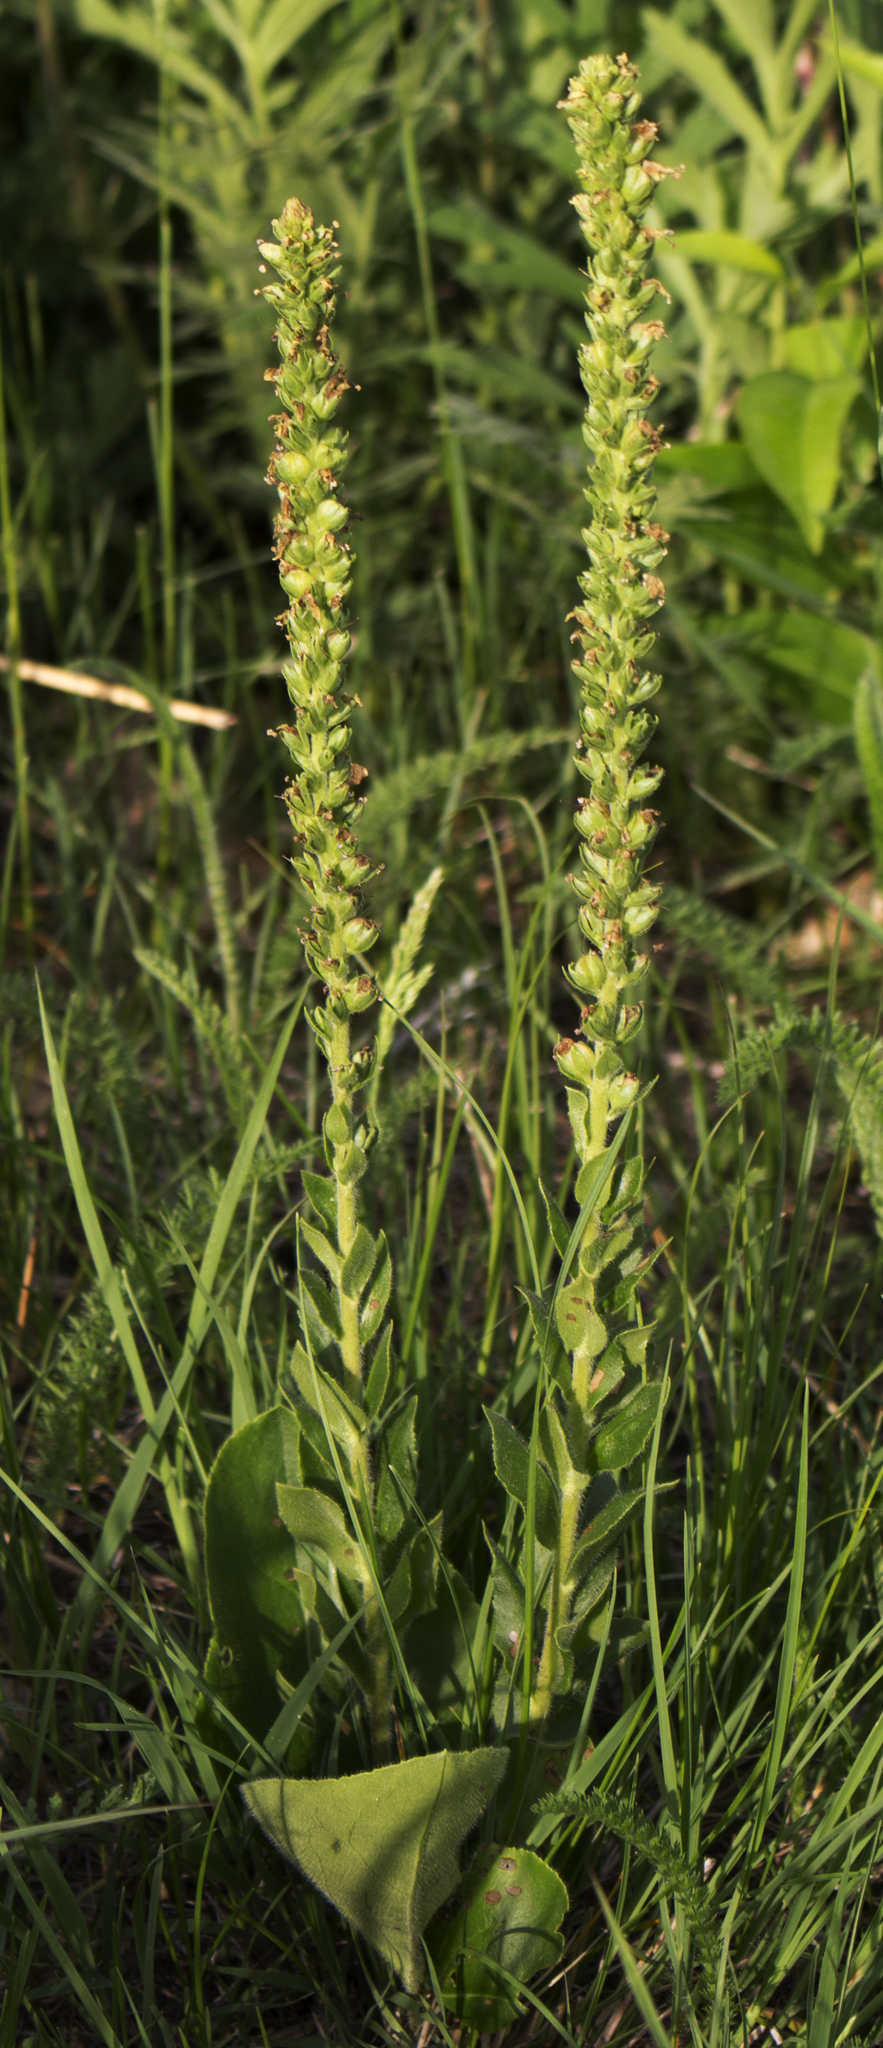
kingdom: Plantae
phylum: Tracheophyta
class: Magnoliopsida
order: Lamiales
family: Plantaginaceae
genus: Synthyris
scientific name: Synthyris bullii
